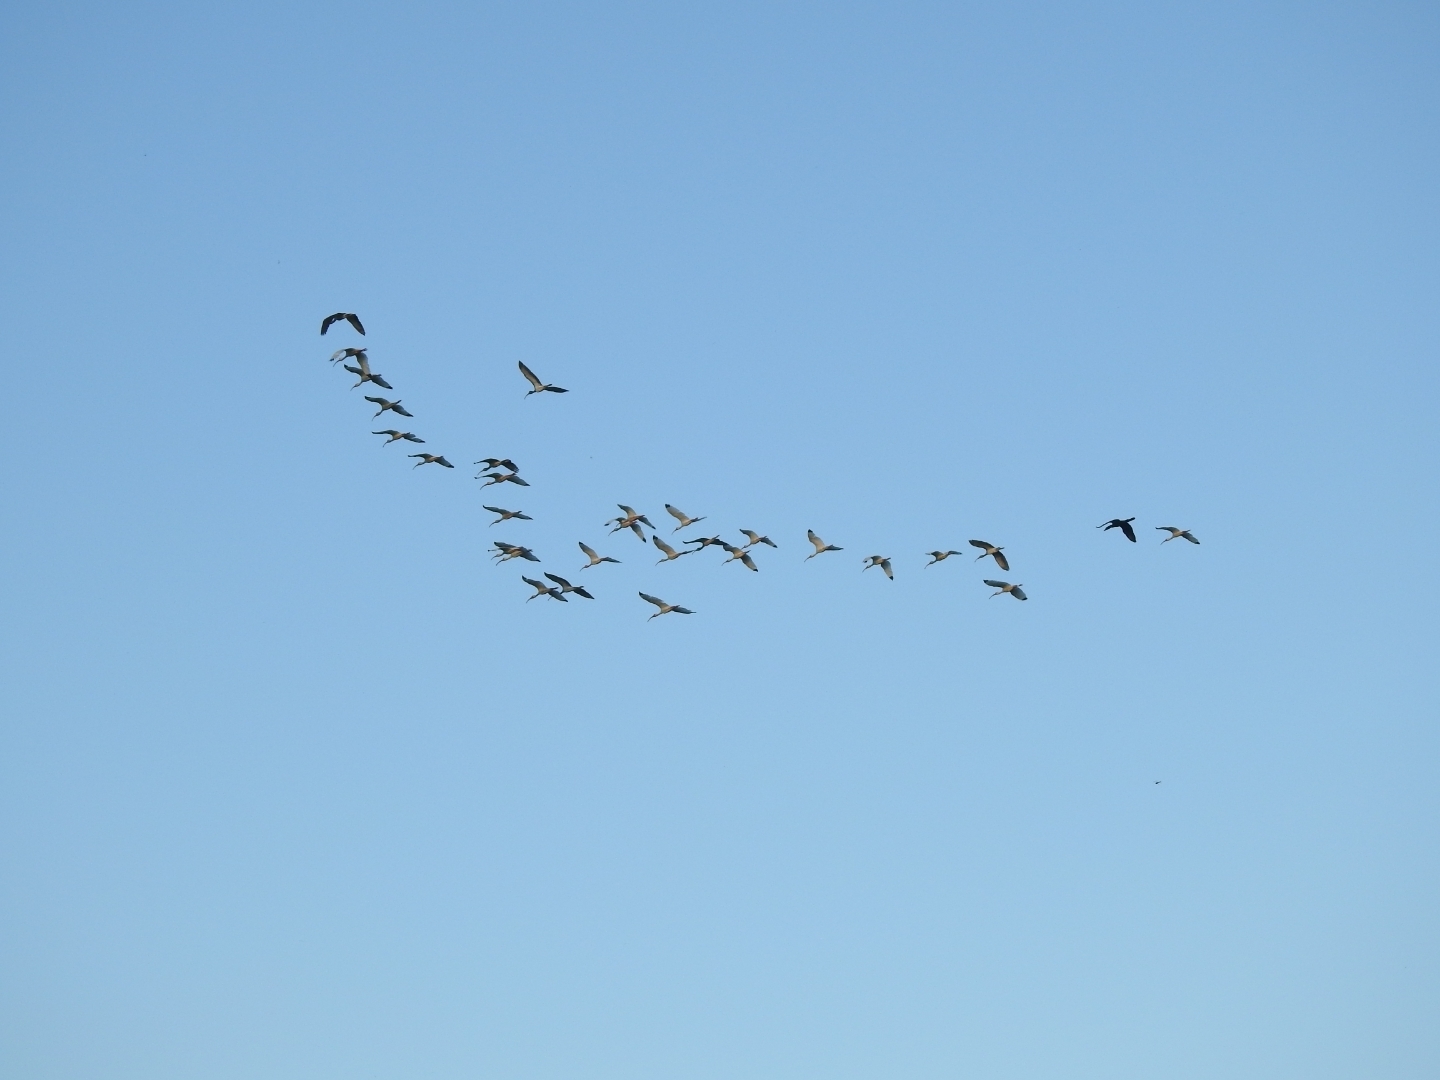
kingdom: Animalia
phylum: Chordata
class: Aves
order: Pelecaniformes
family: Threskiornithidae
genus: Eudocimus
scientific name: Eudocimus albus
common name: White ibis
